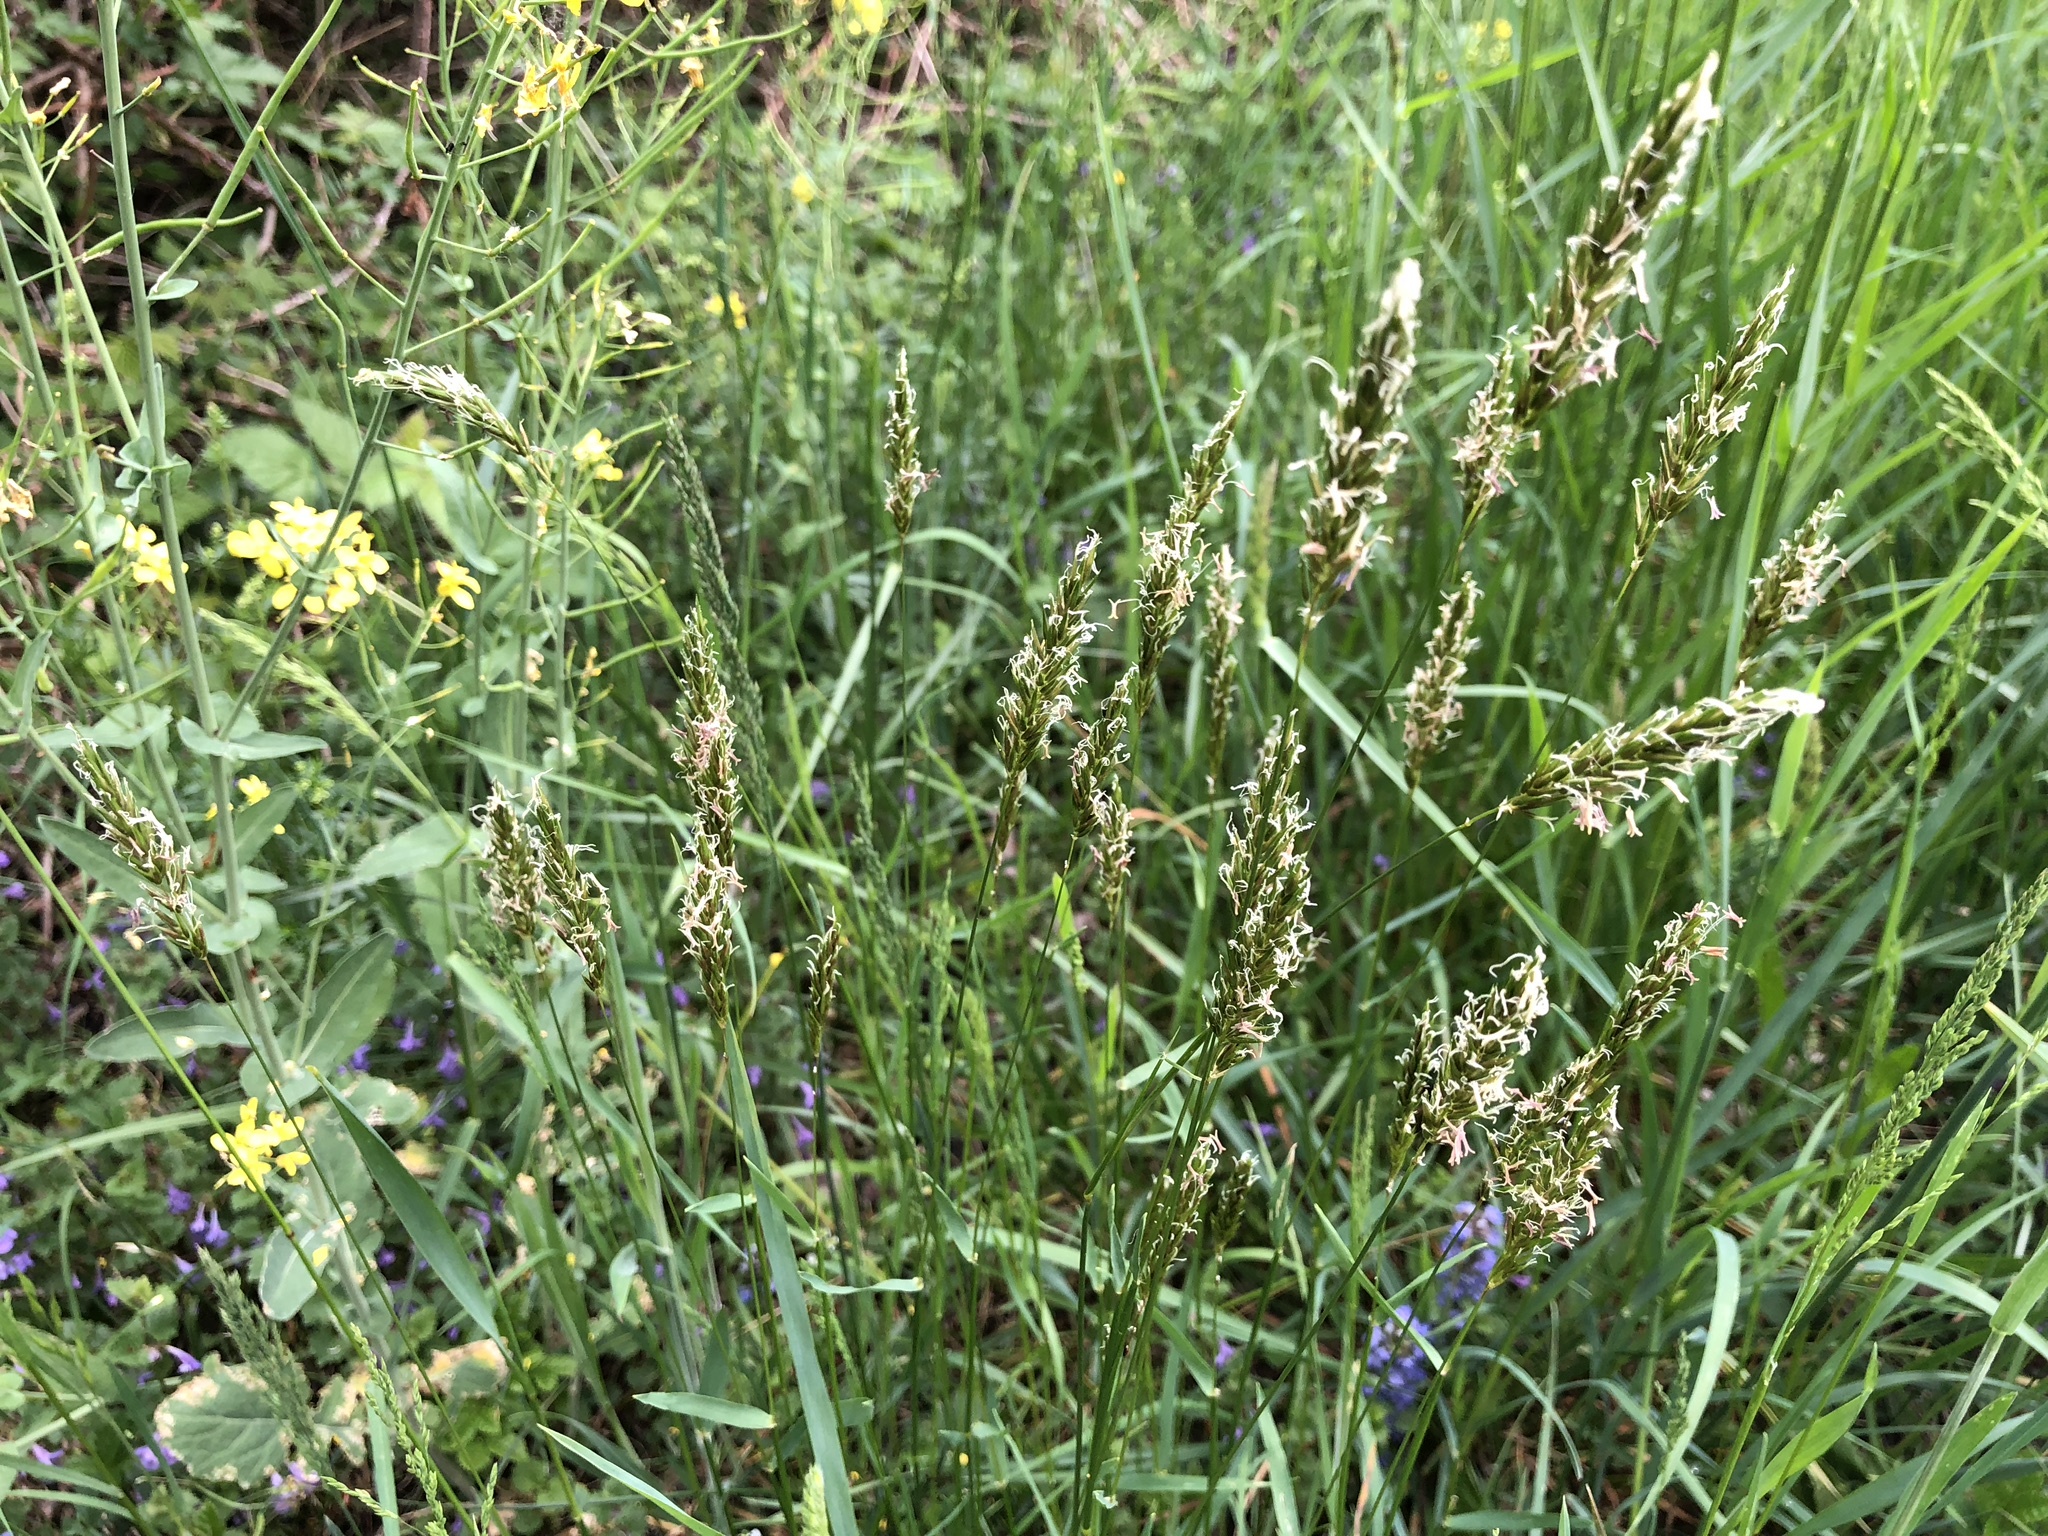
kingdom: Plantae
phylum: Tracheophyta
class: Liliopsida
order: Poales
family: Poaceae
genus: Anthoxanthum
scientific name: Anthoxanthum odoratum
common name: Sweet vernalgrass
